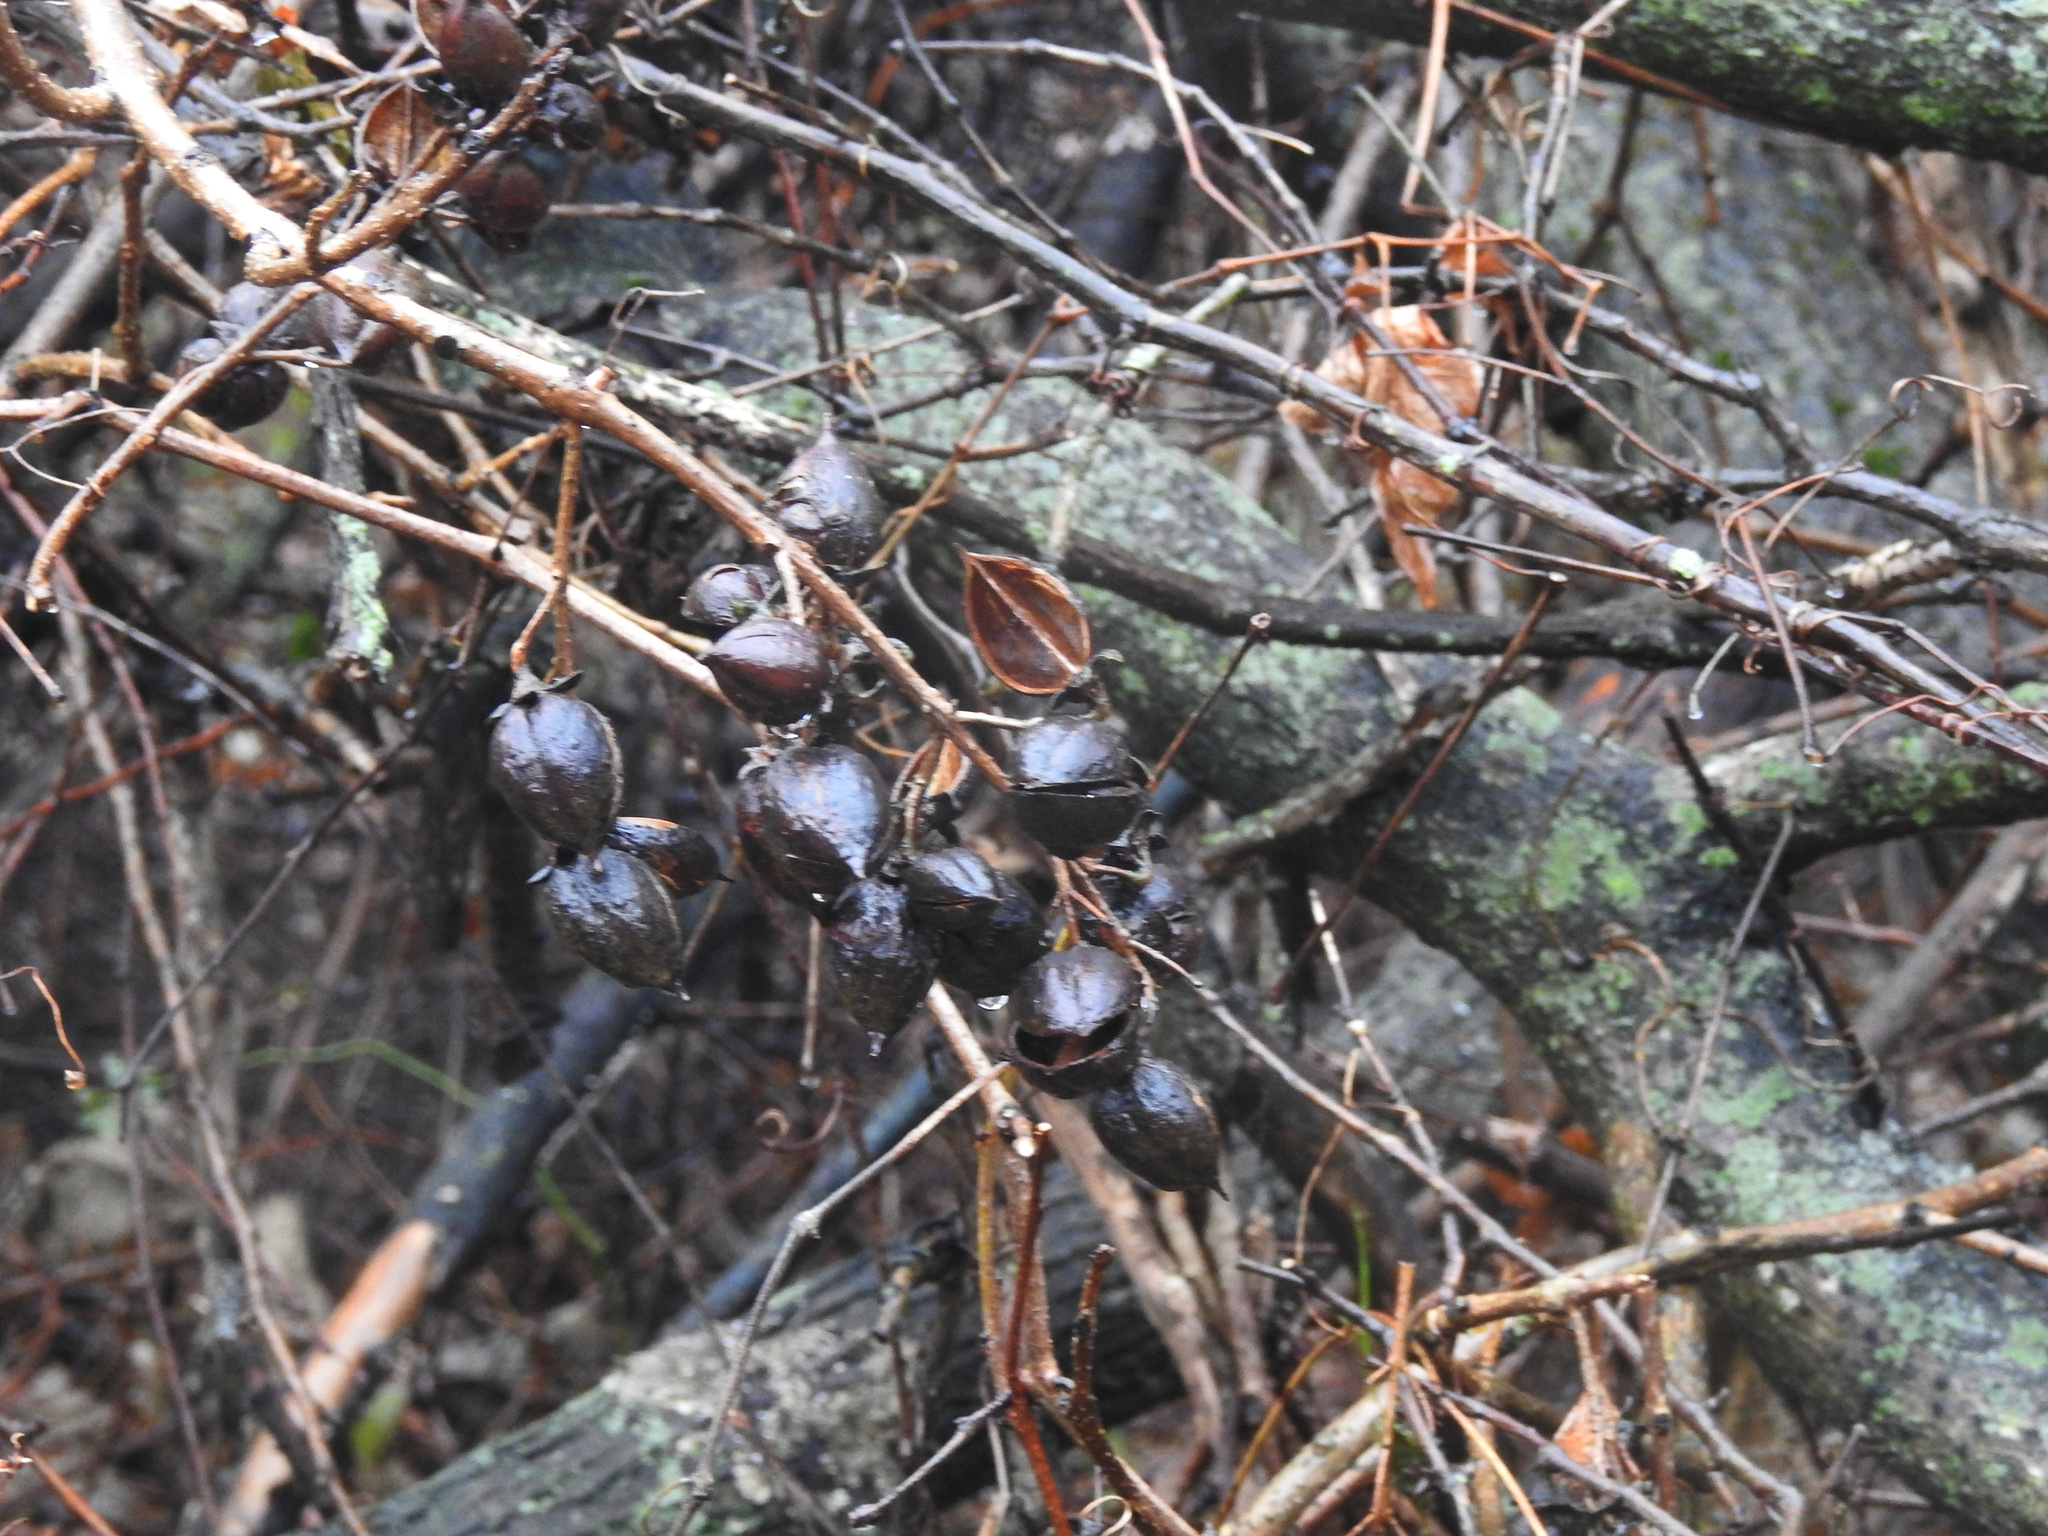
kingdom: Plantae
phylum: Tracheophyta
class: Magnoliopsida
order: Lamiales
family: Paulowniaceae
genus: Paulownia
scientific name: Paulownia tomentosa
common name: Foxglove-tree
